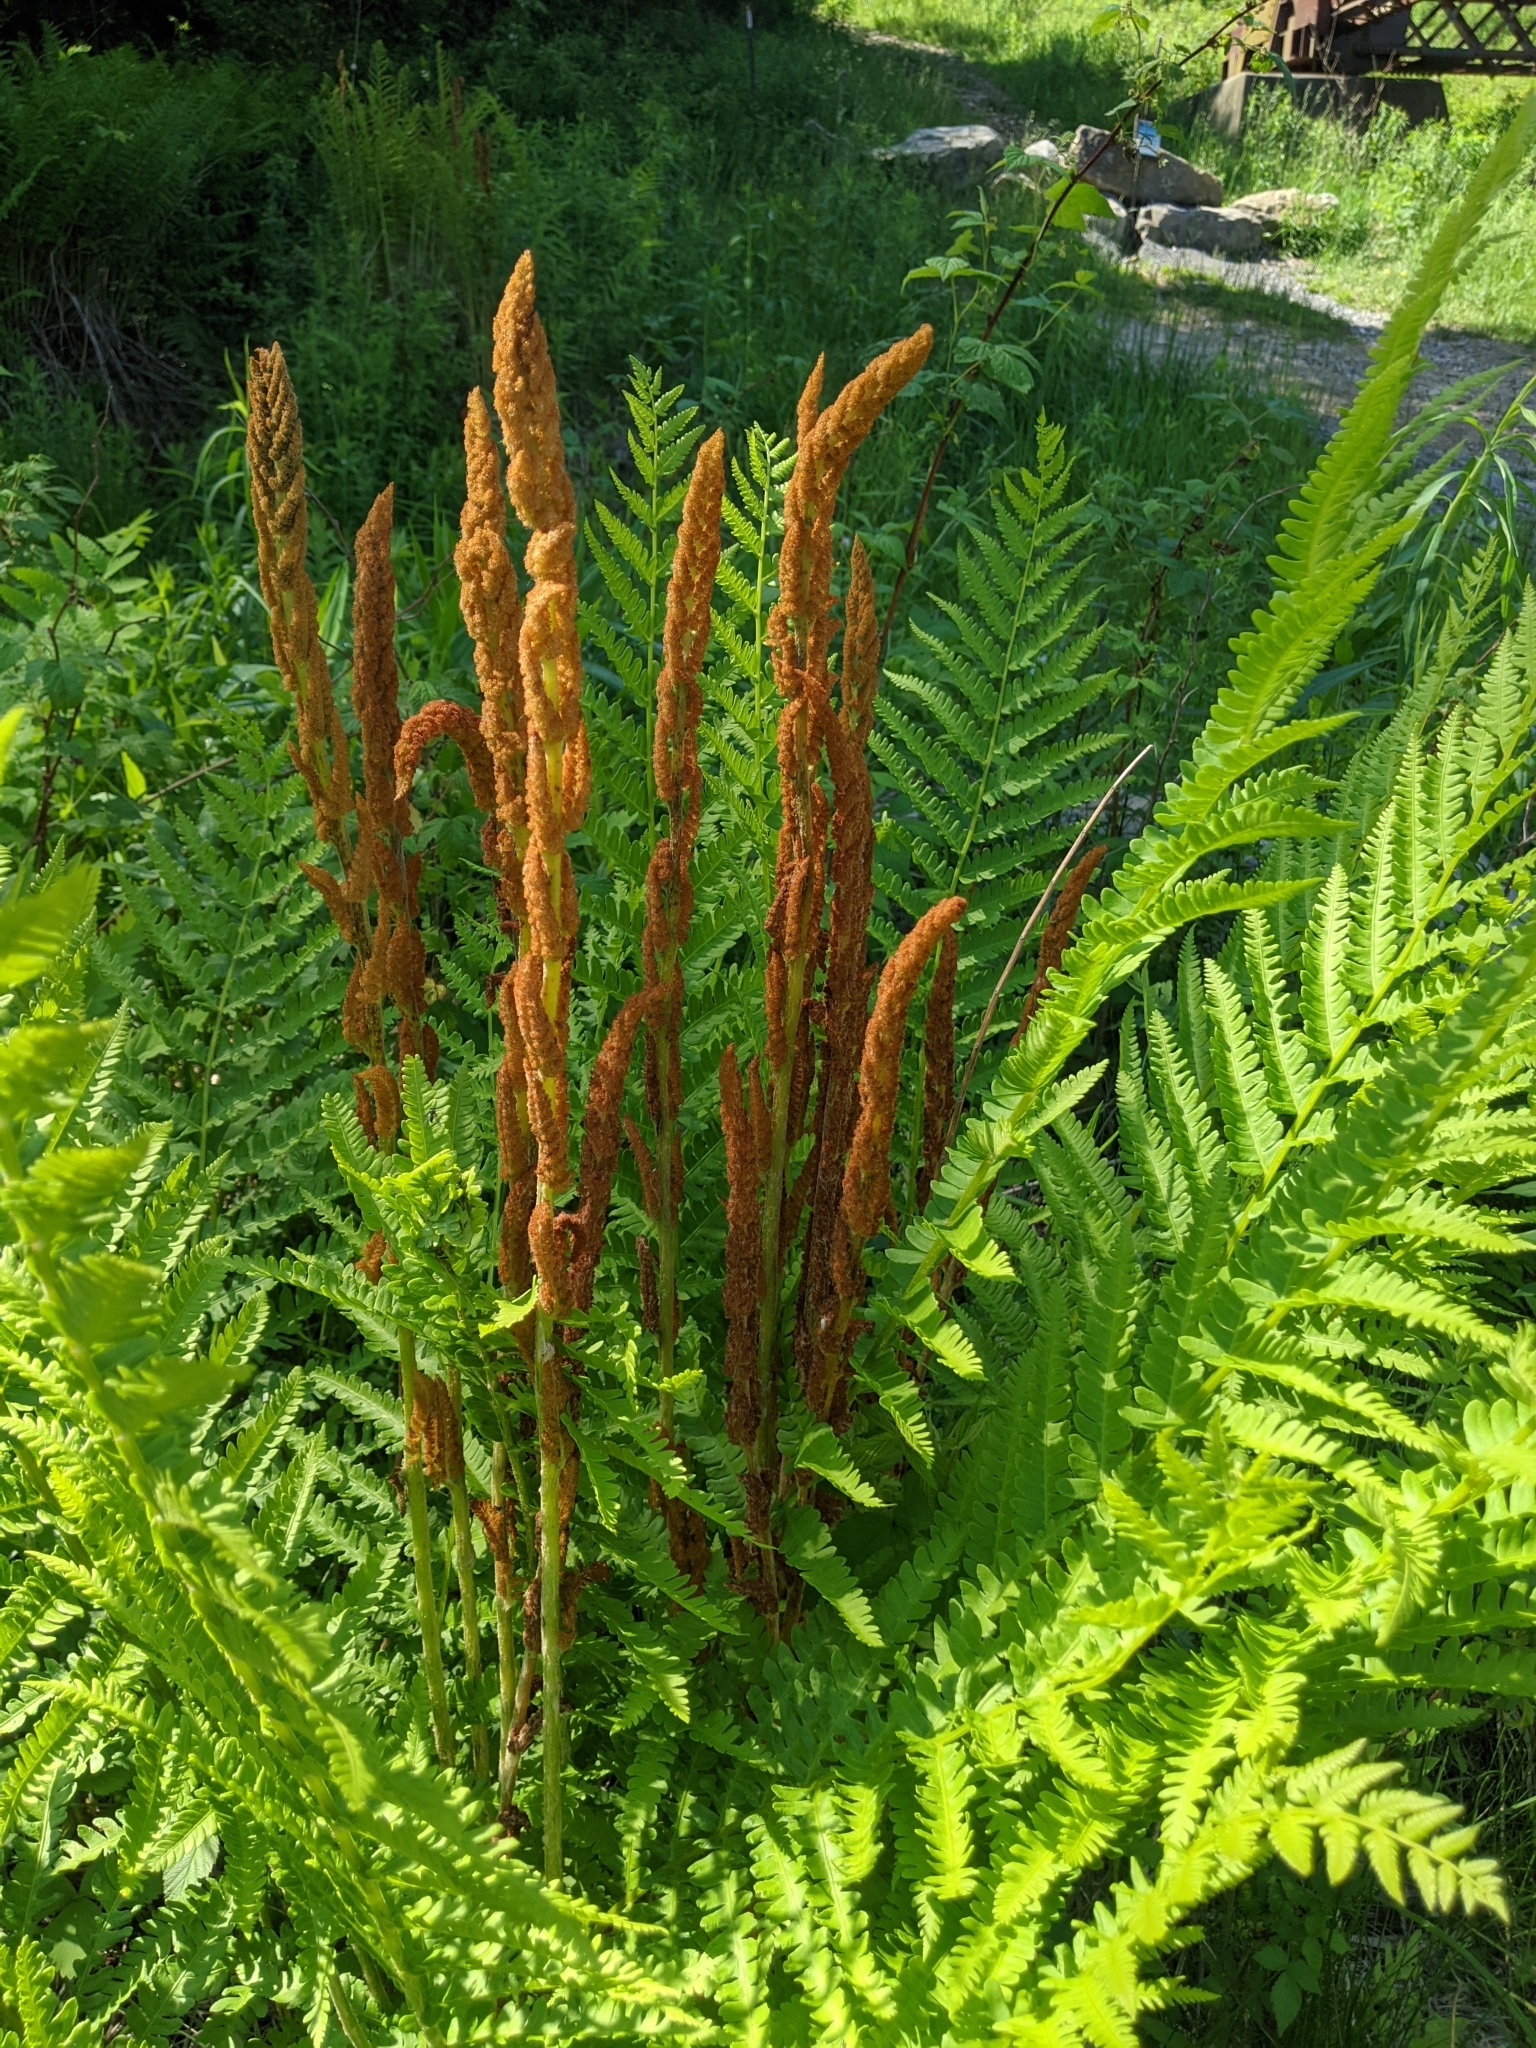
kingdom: Plantae
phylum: Tracheophyta
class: Polypodiopsida
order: Osmundales
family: Osmundaceae
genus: Osmundastrum
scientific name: Osmundastrum cinnamomeum
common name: Cinnamon fern
